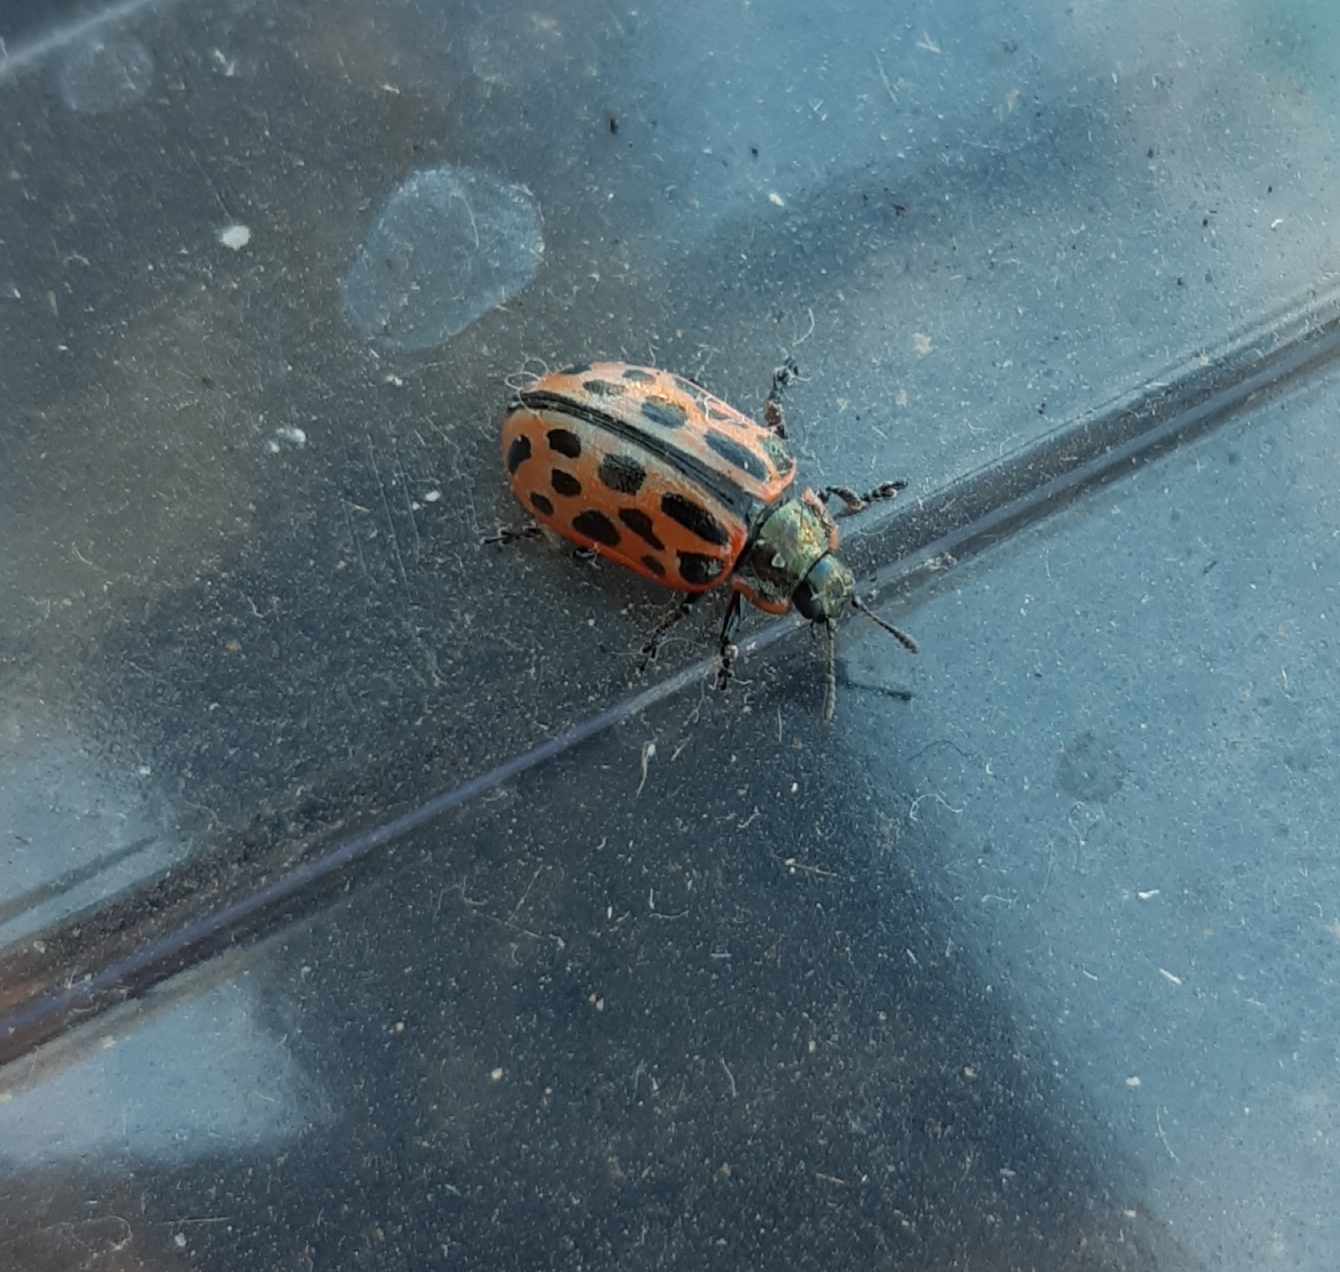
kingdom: Animalia
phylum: Arthropoda
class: Insecta
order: Coleoptera
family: Chrysomelidae
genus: Chrysomela
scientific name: Chrysomela vigintipunctata
